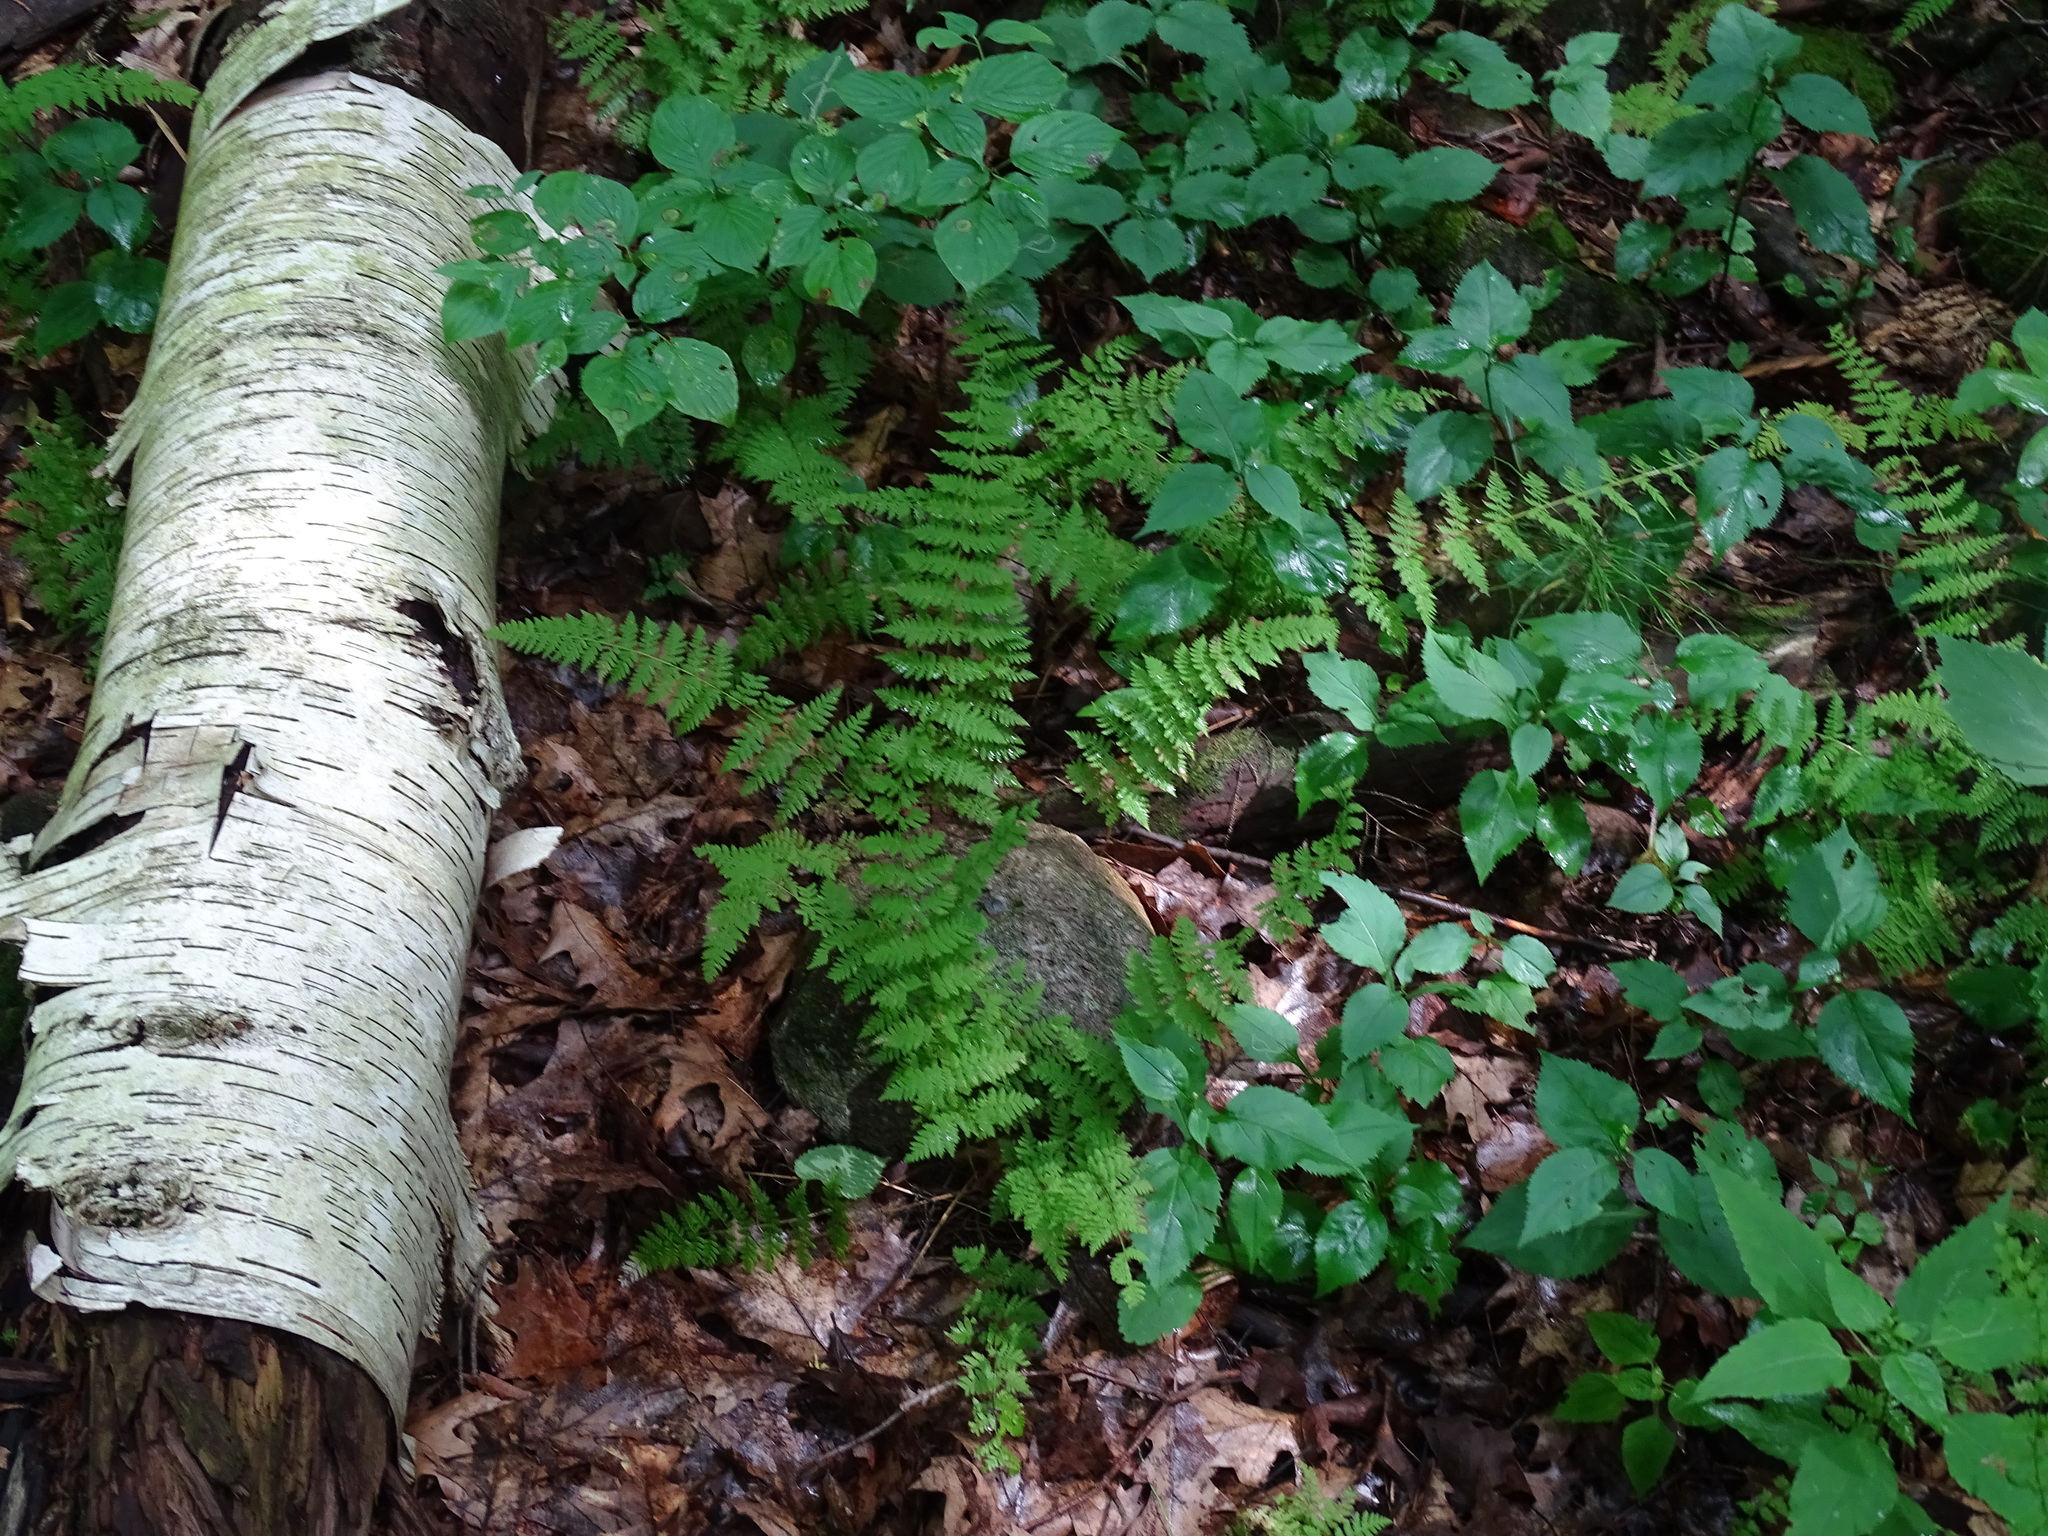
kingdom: Plantae
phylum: Tracheophyta
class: Polypodiopsida
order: Polypodiales
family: Cystopteridaceae
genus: Cystopteris
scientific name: Cystopteris bulbifera
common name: Bulblet bladder fern
